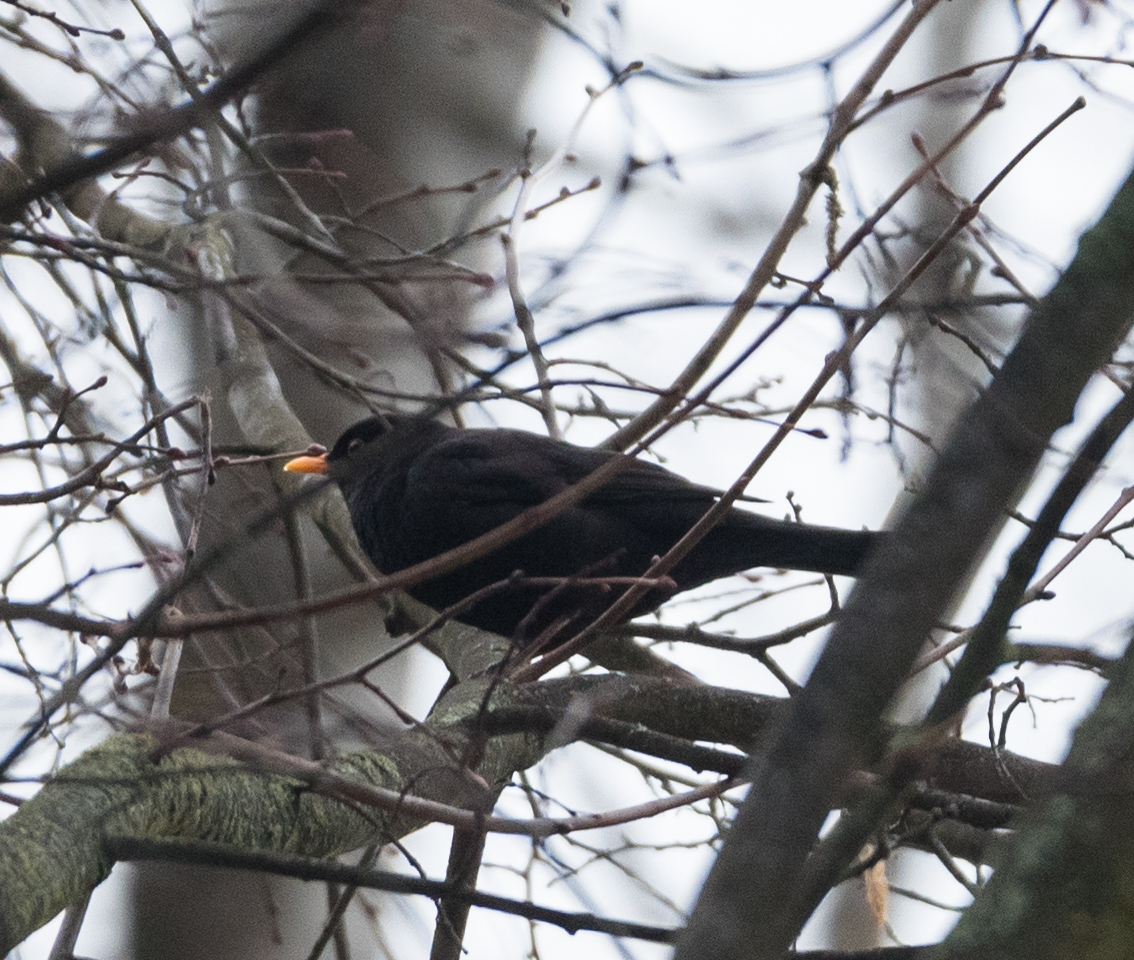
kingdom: Animalia
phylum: Chordata
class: Aves
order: Passeriformes
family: Turdidae
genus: Turdus
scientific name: Turdus merula
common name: Common blackbird
